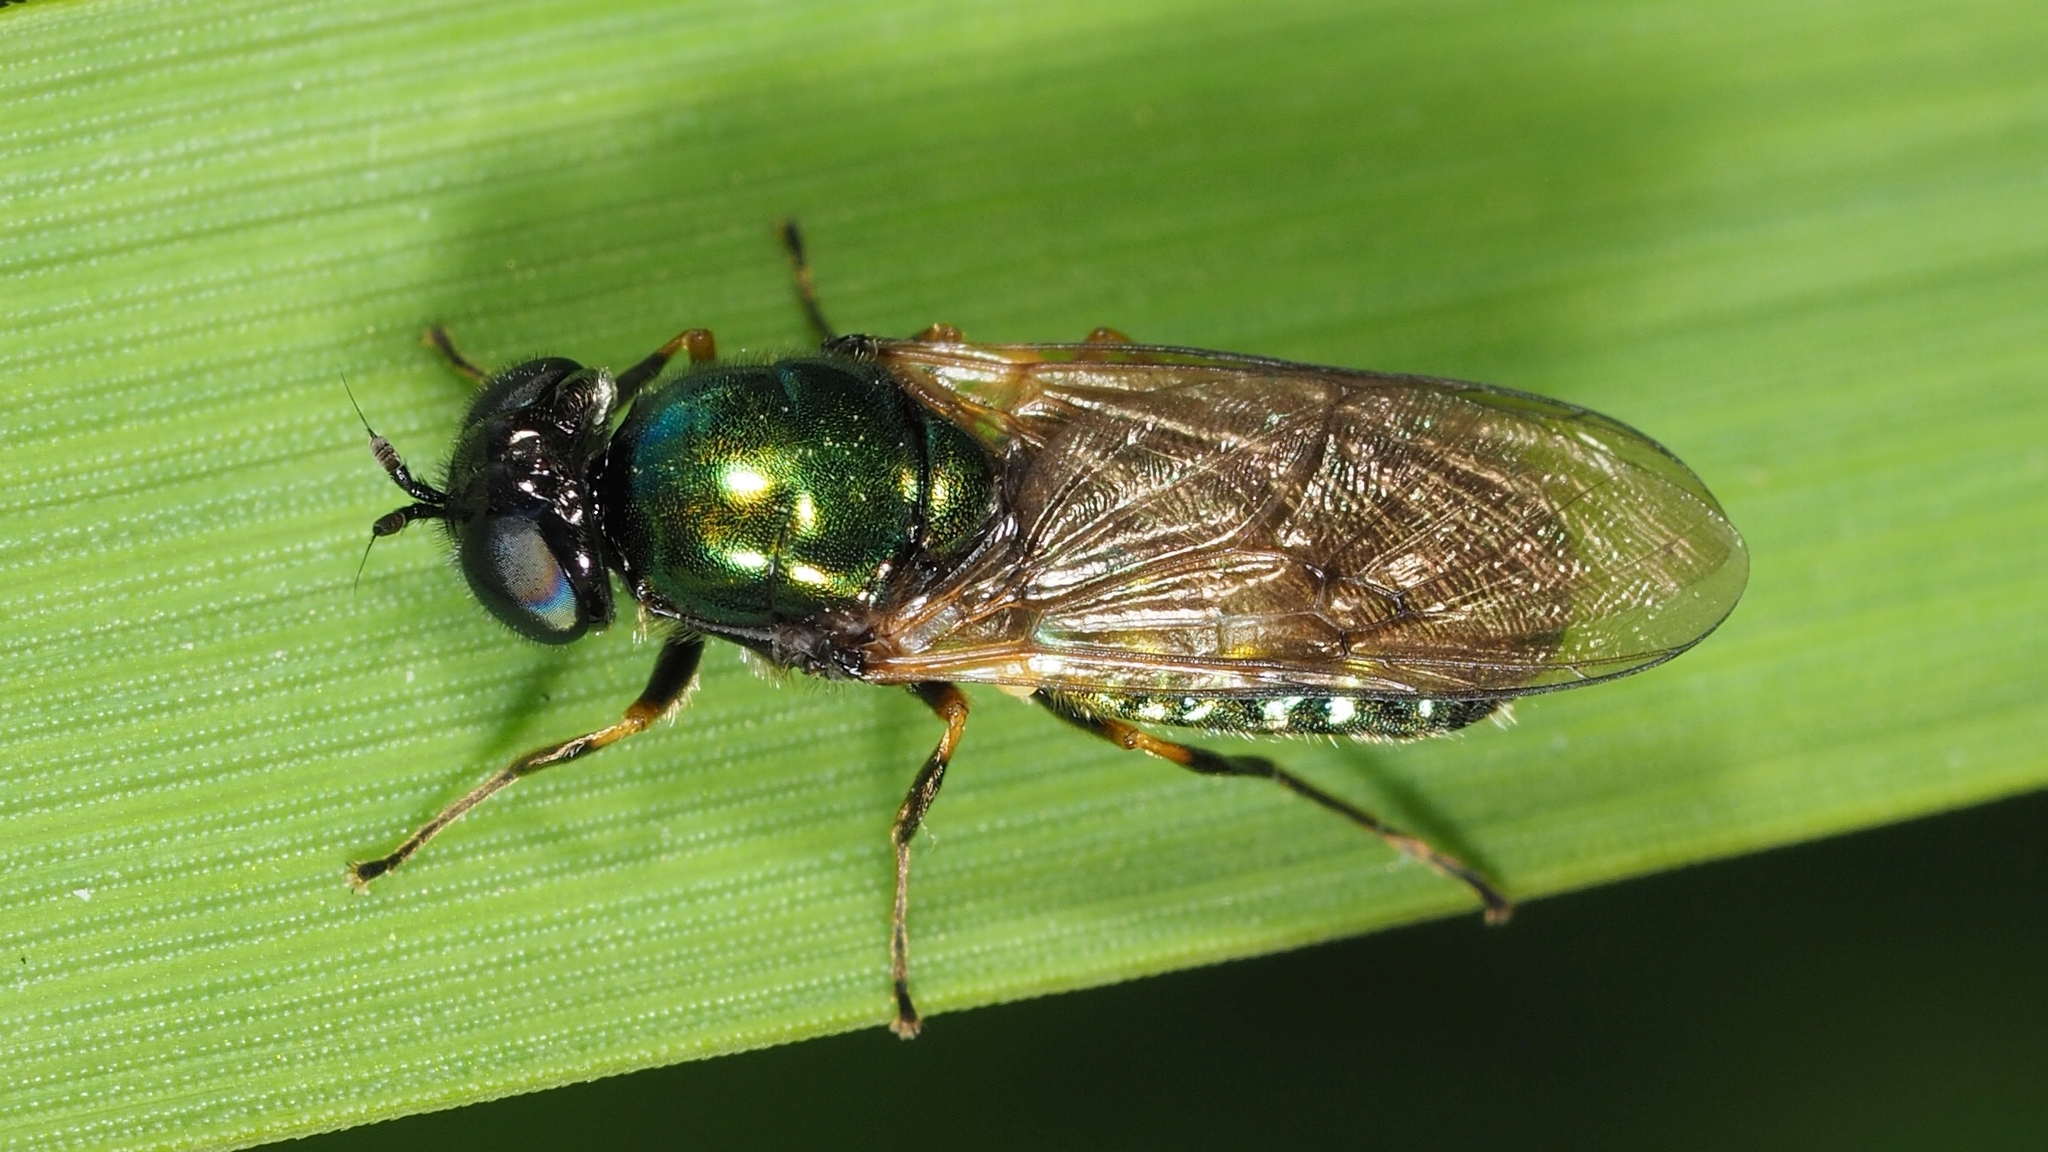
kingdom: Animalia
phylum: Arthropoda
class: Insecta
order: Diptera
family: Stratiomyidae
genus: Chloromyia
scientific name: Chloromyia formosa
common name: Soldier fly
